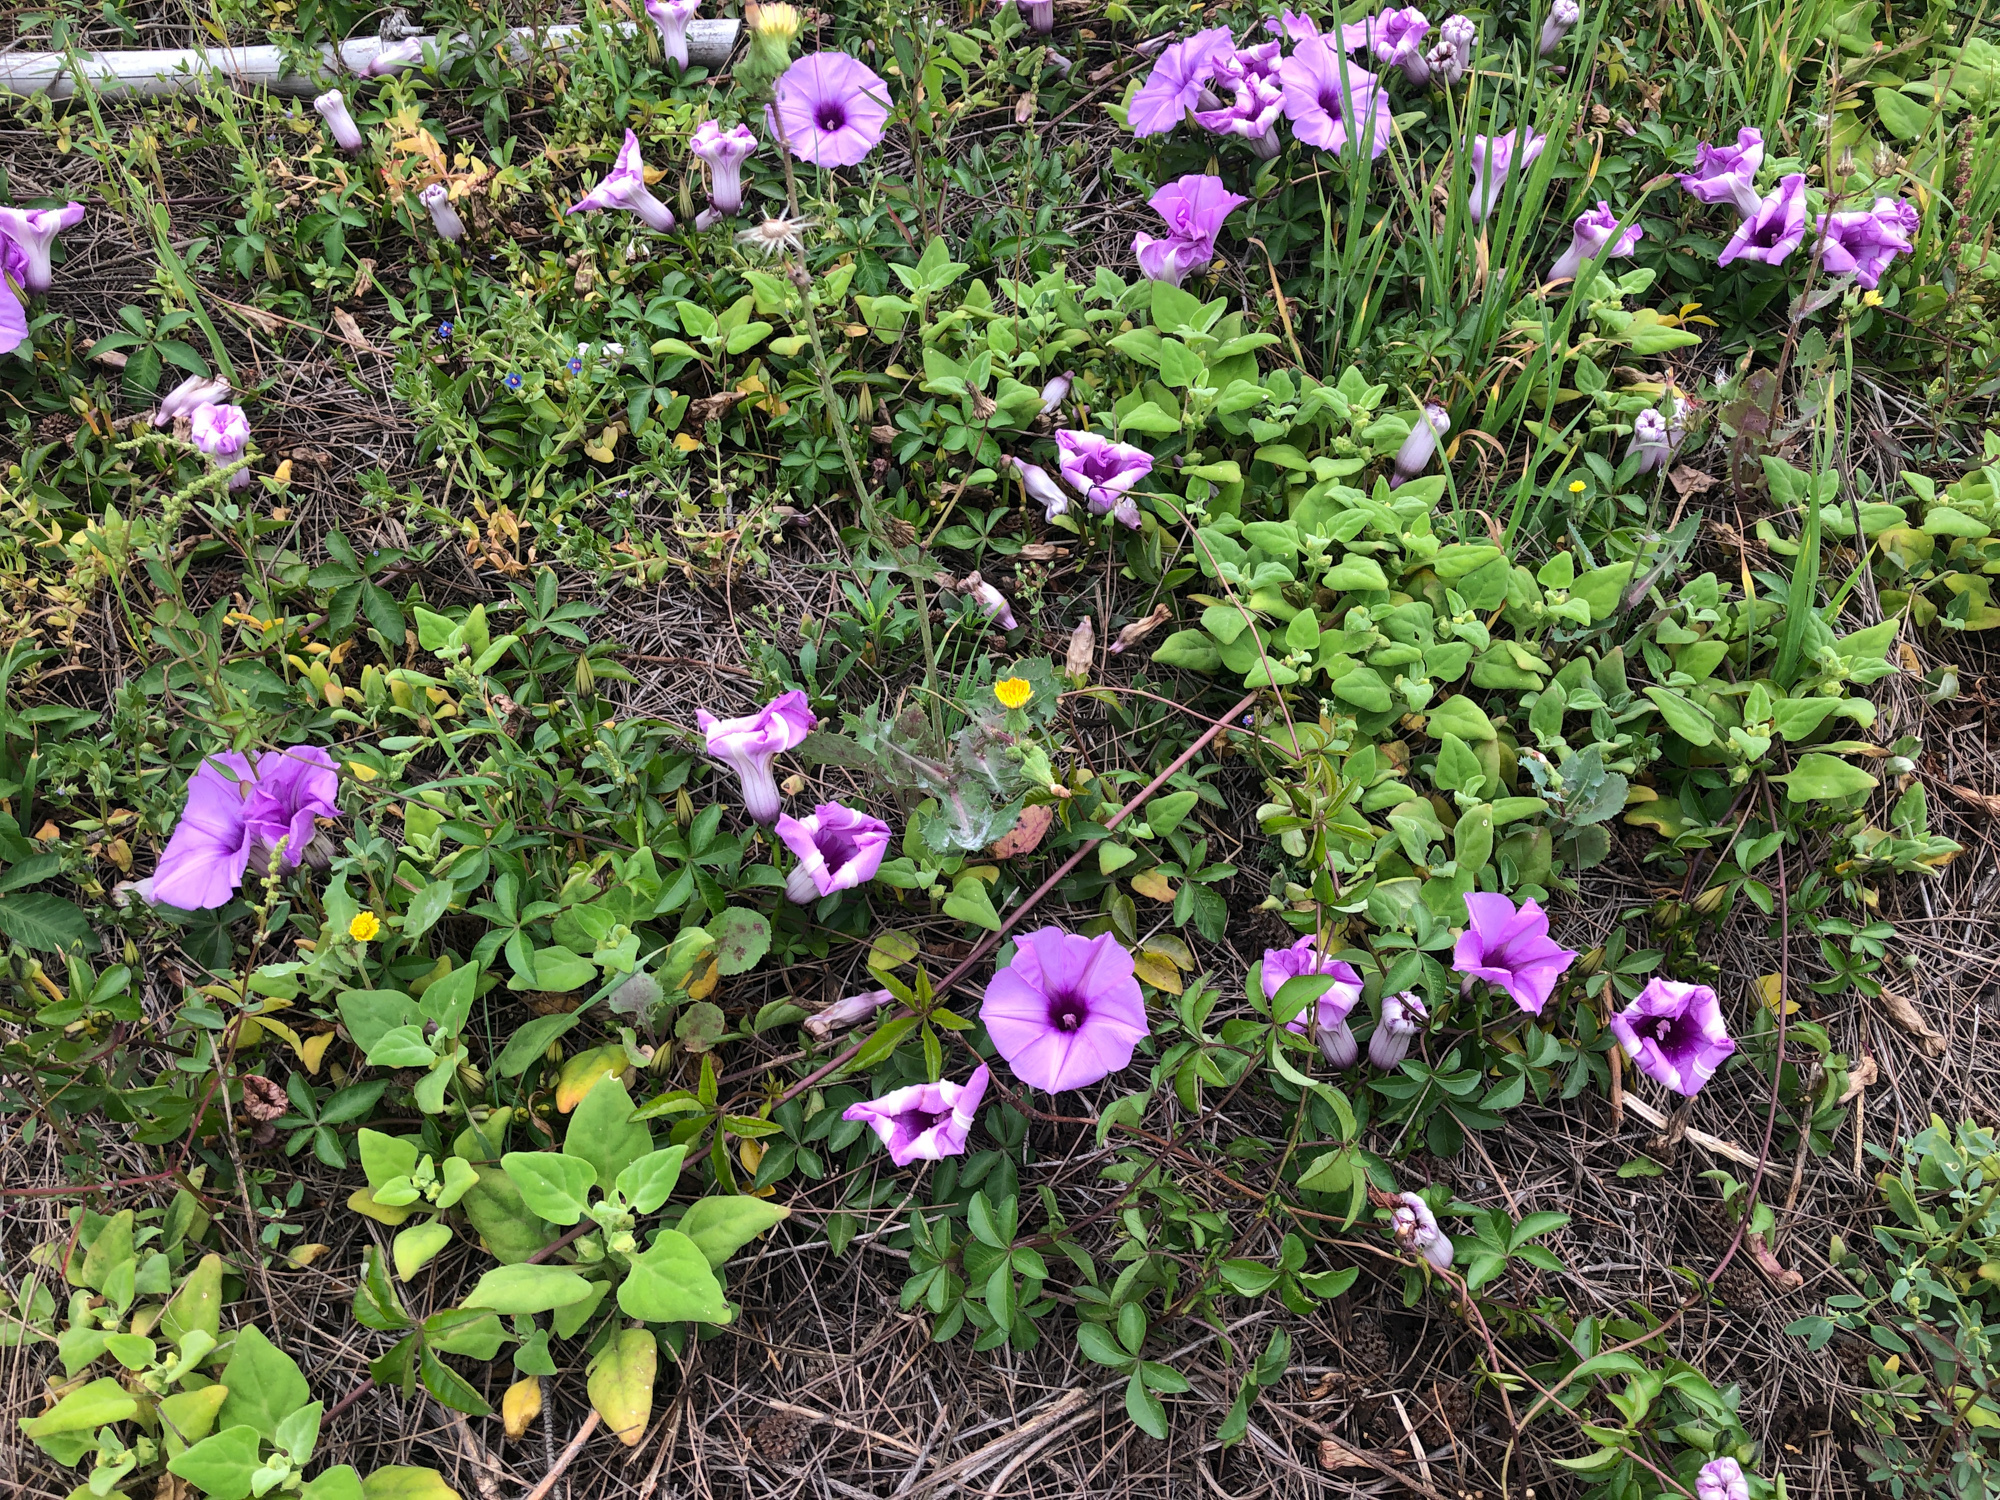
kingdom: Plantae
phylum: Tracheophyta
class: Magnoliopsida
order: Solanales
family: Convolvulaceae
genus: Ipomoea
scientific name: Ipomoea cairica
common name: Mile a minute vine
